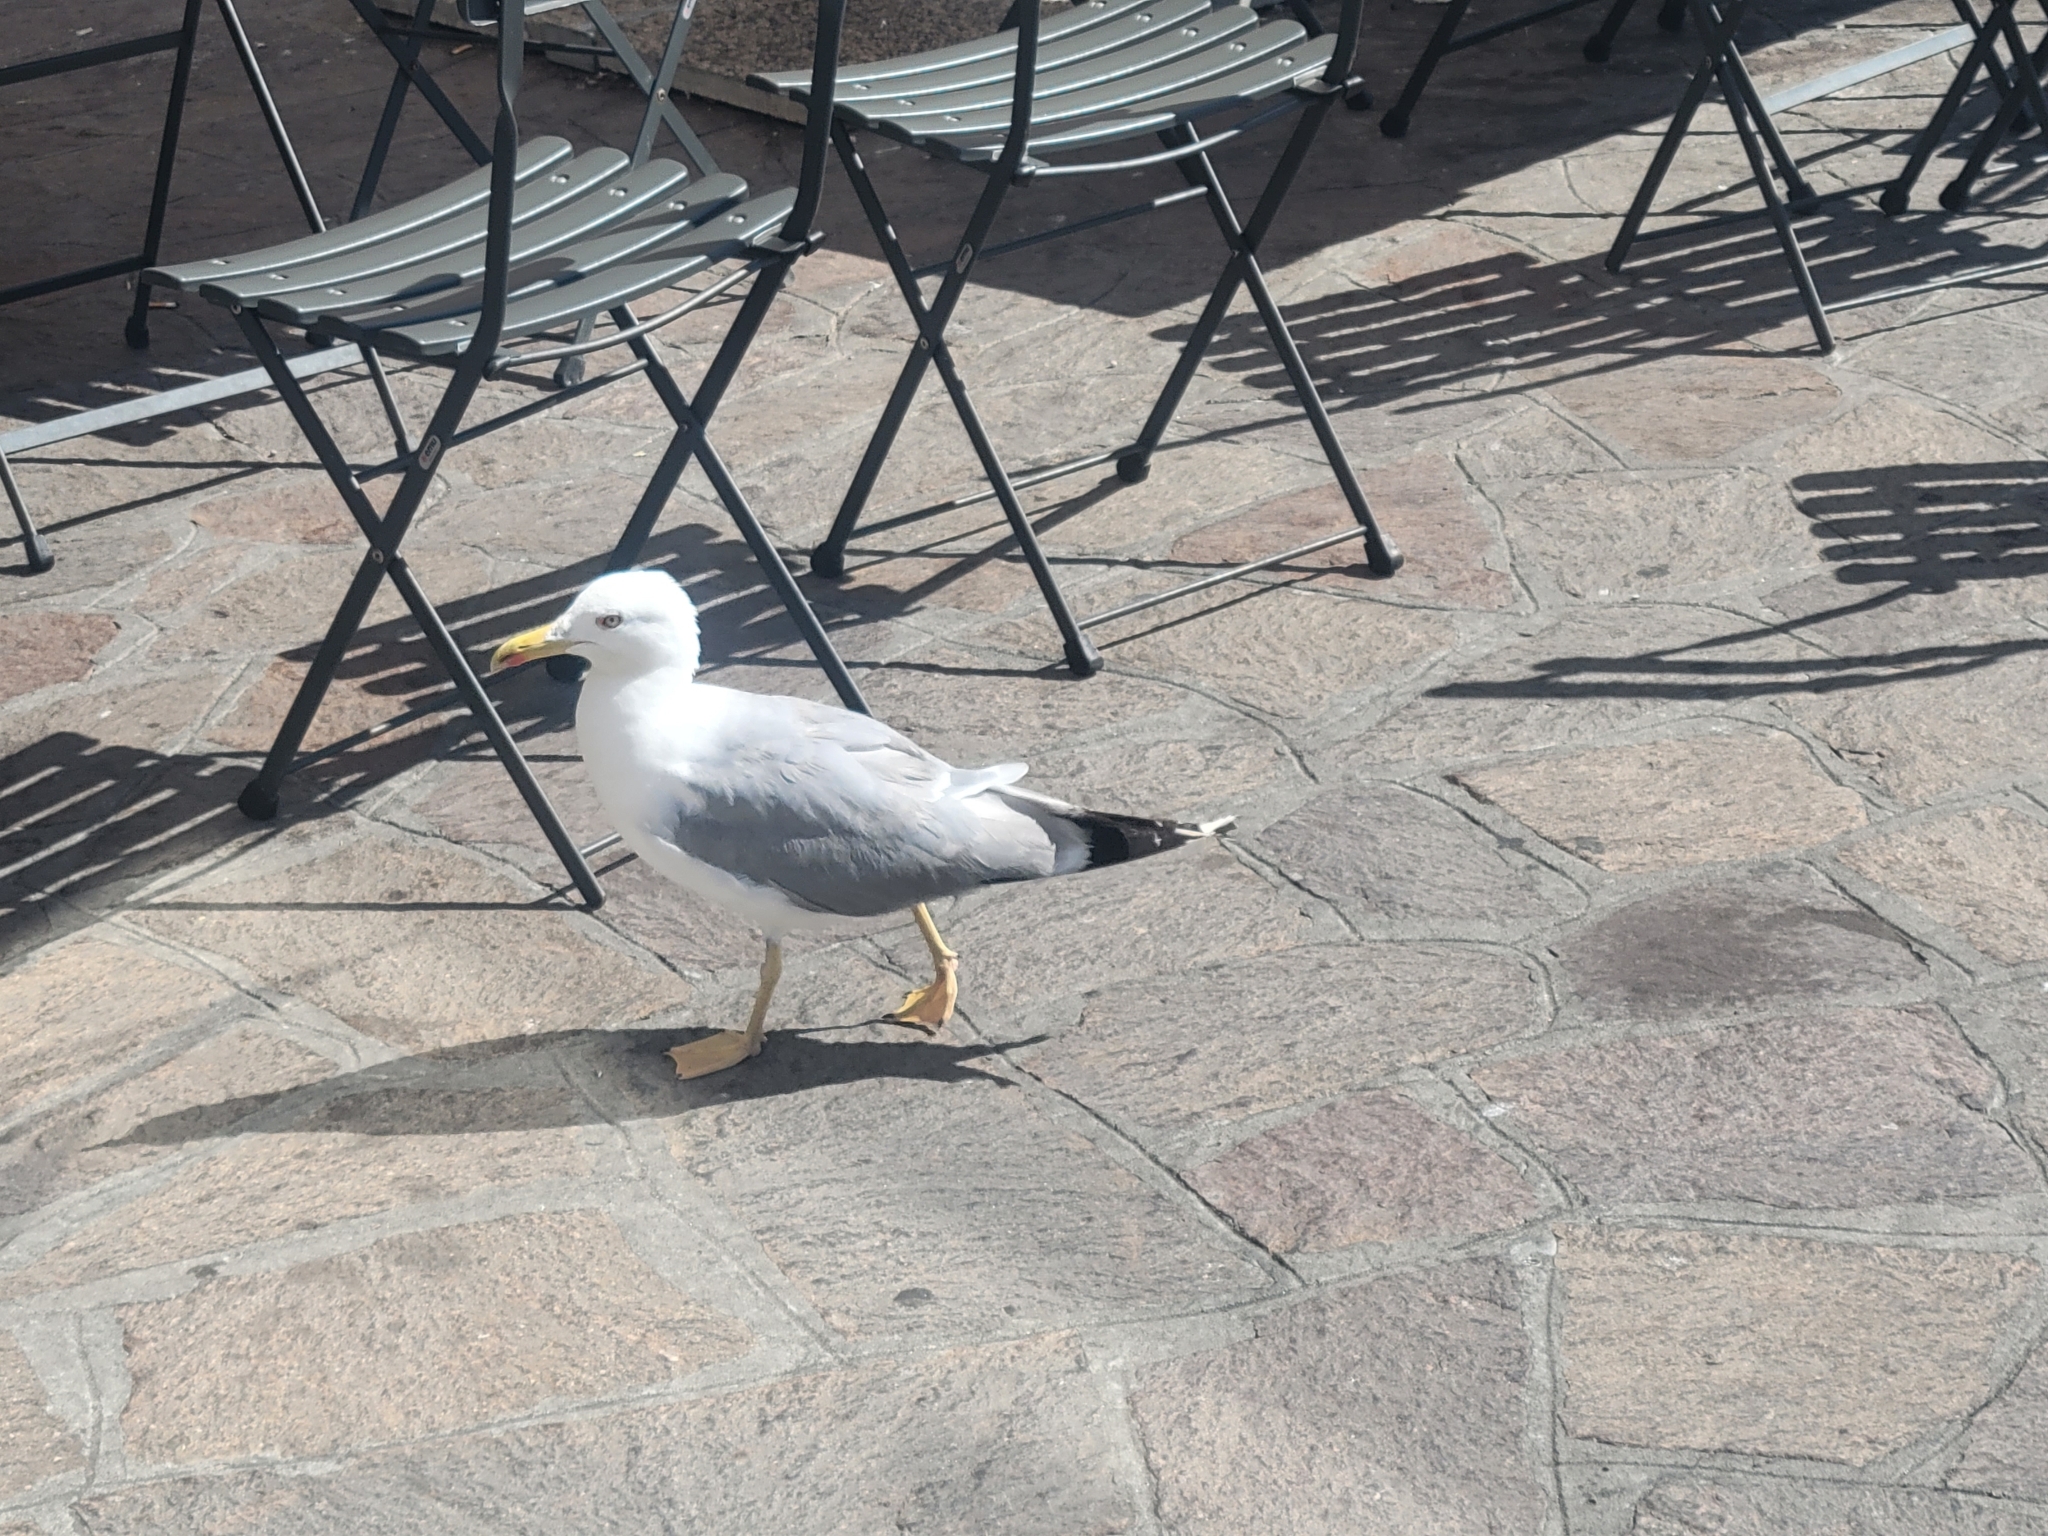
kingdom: Animalia
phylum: Chordata
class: Aves
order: Charadriiformes
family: Laridae
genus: Larus
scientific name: Larus michahellis
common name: Yellow-legged gull
